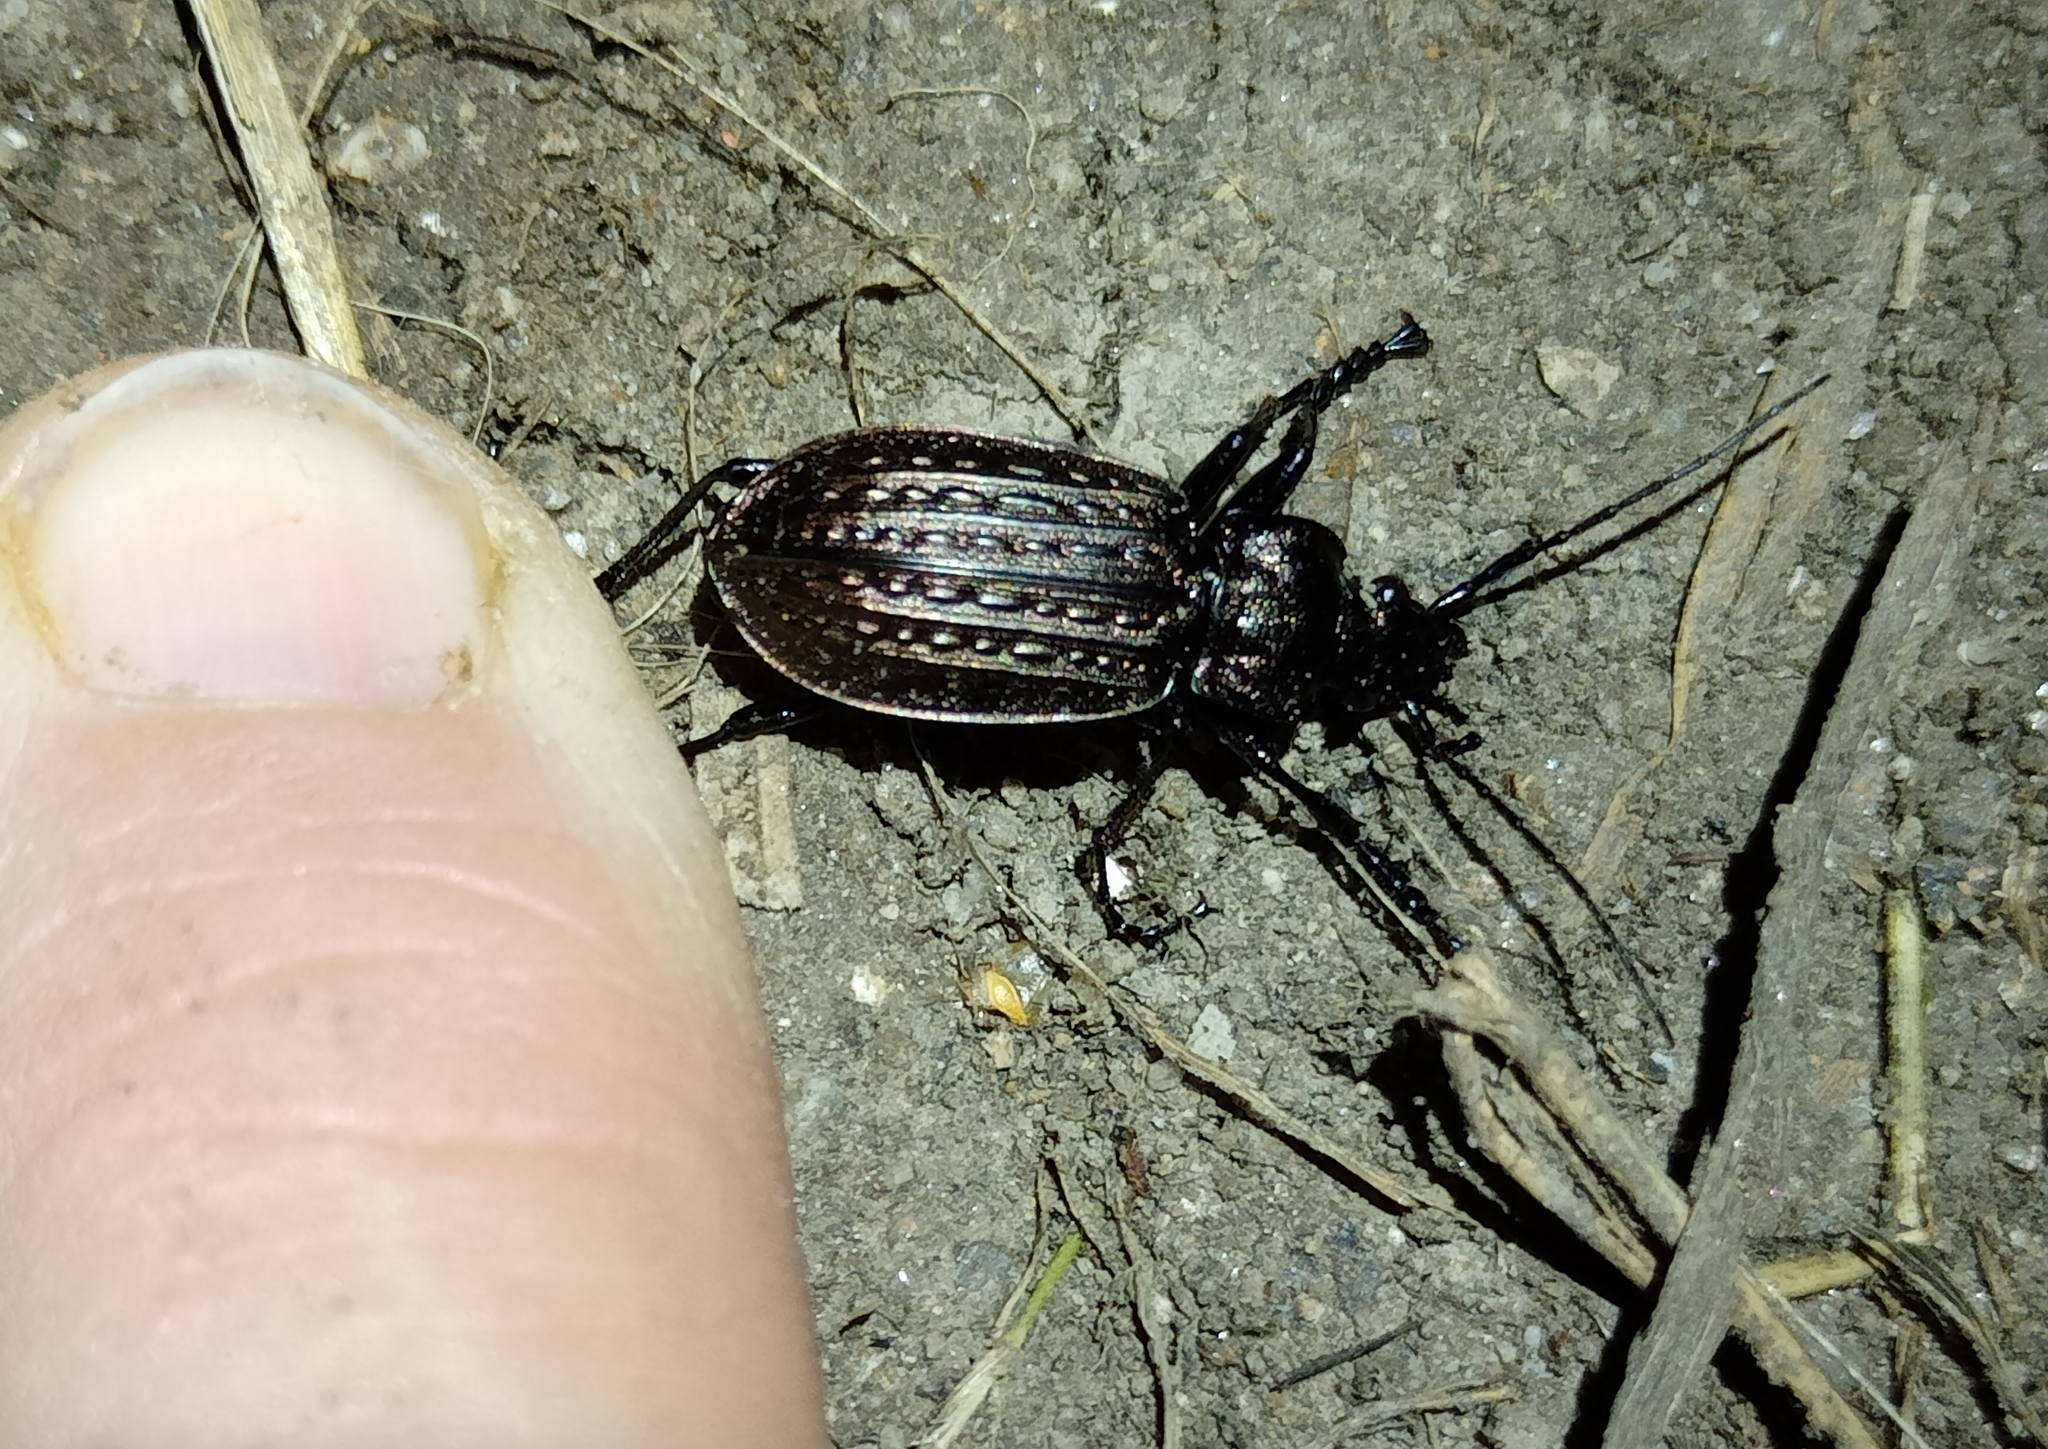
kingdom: Animalia
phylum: Arthropoda
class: Insecta
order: Coleoptera
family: Carabidae
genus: Carabus
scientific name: Carabus granulatus
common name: Granulate ground beetle
